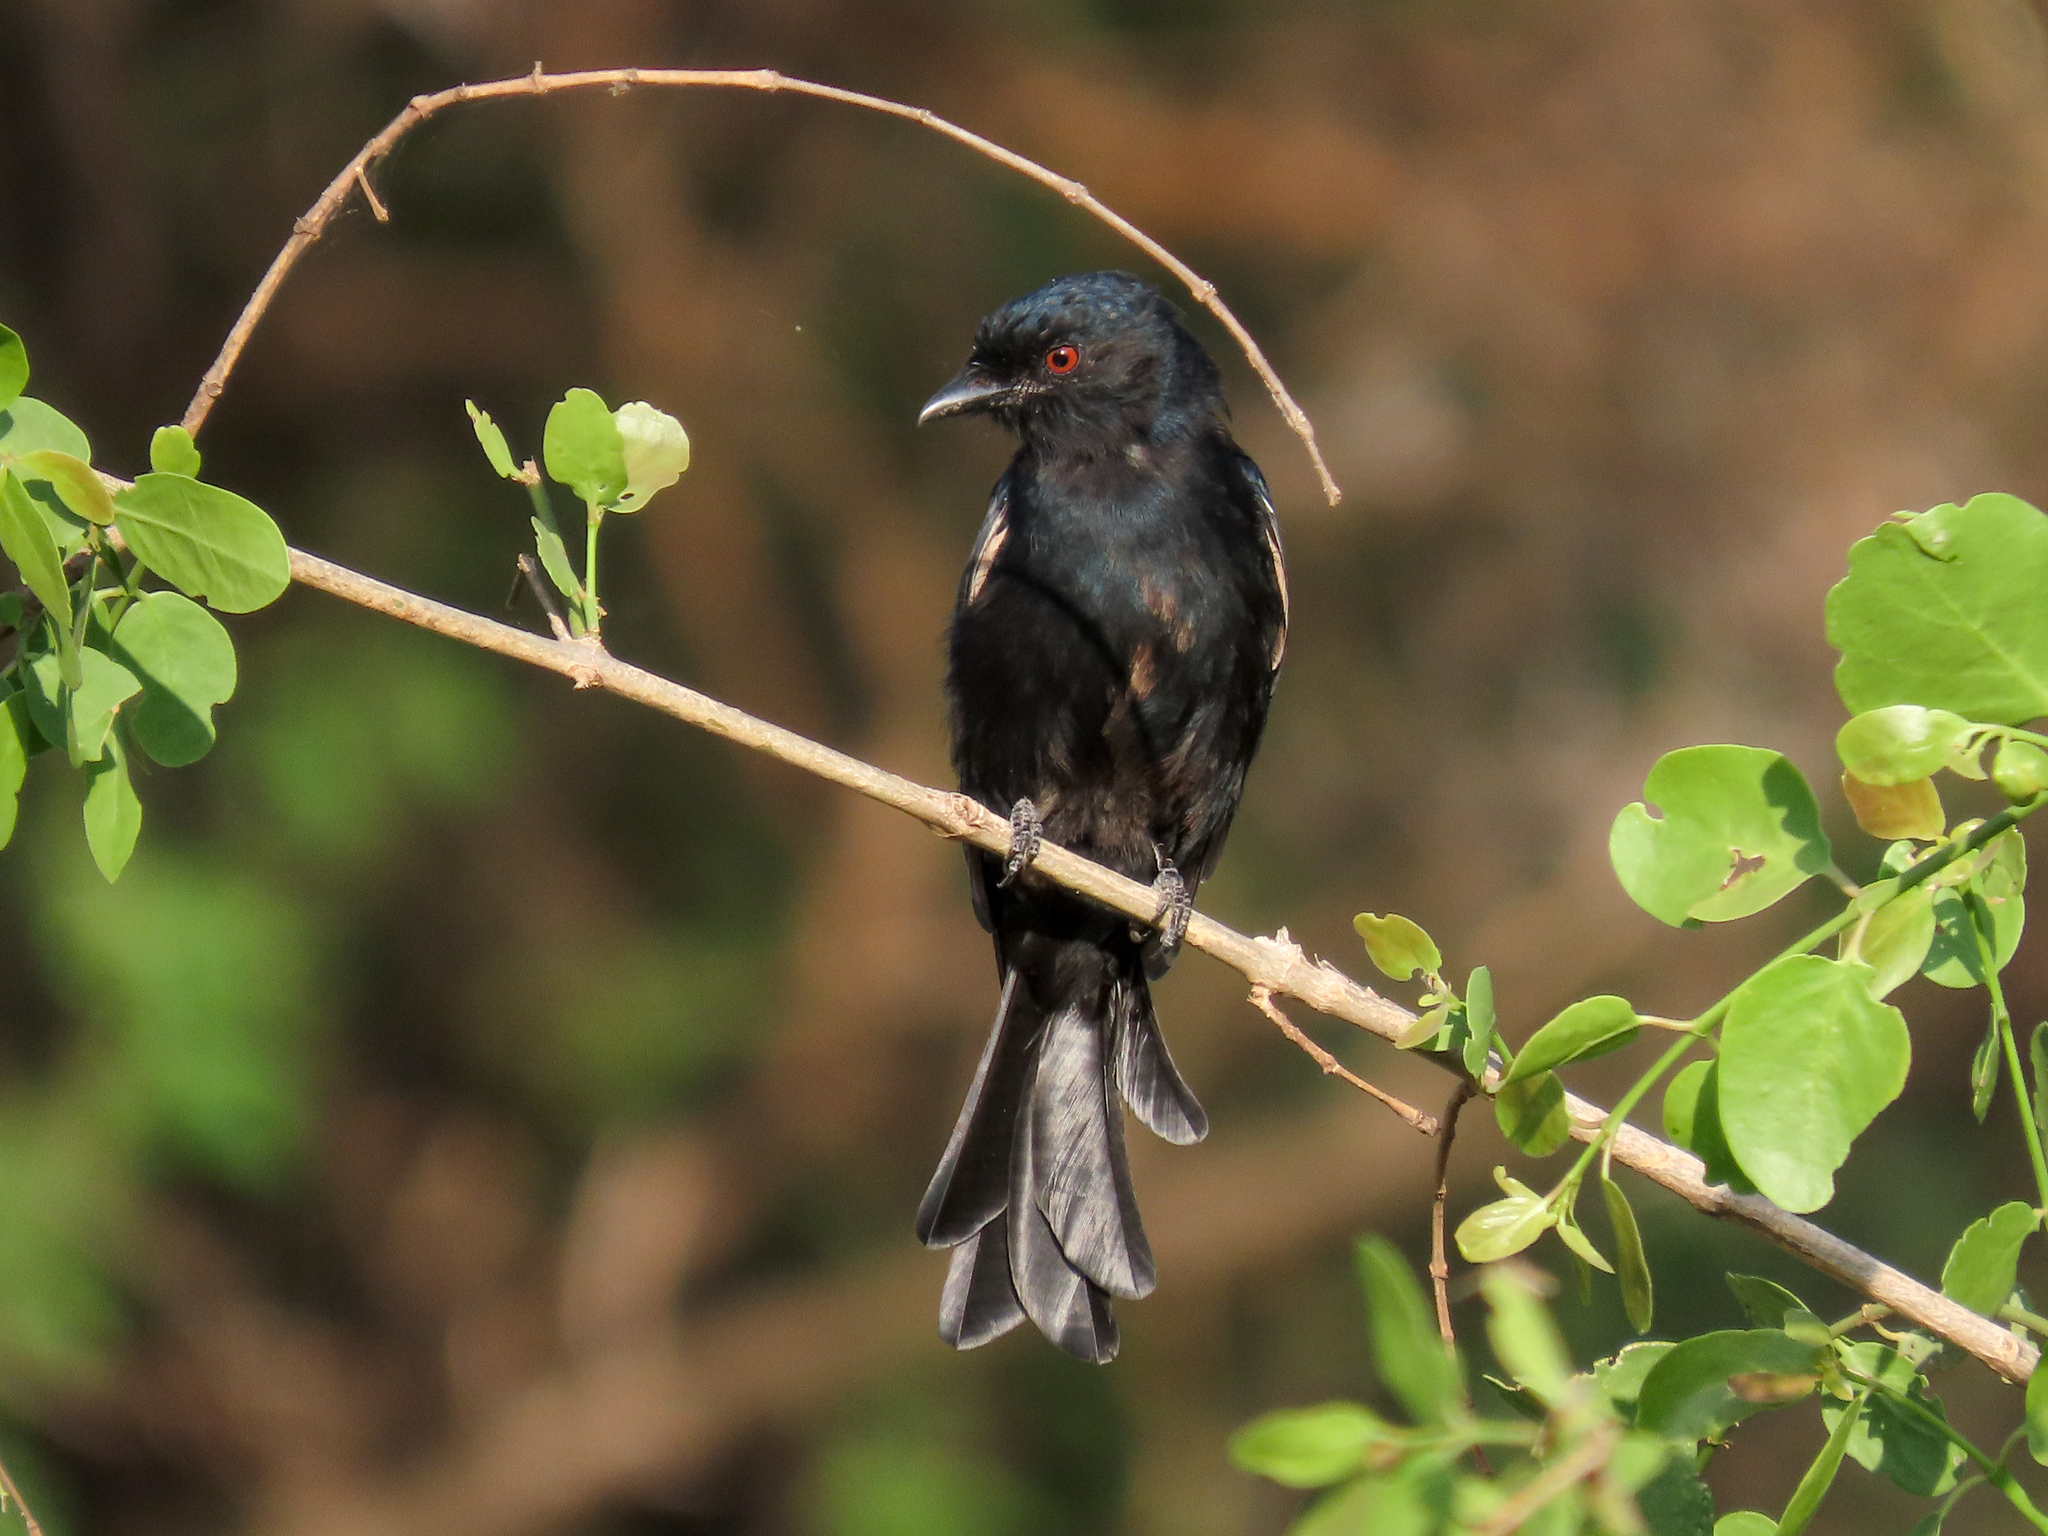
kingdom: Animalia
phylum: Chordata
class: Aves
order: Passeriformes
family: Dicruridae
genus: Dicrurus
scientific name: Dicrurus adsimilis
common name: Fork-tailed drongo
